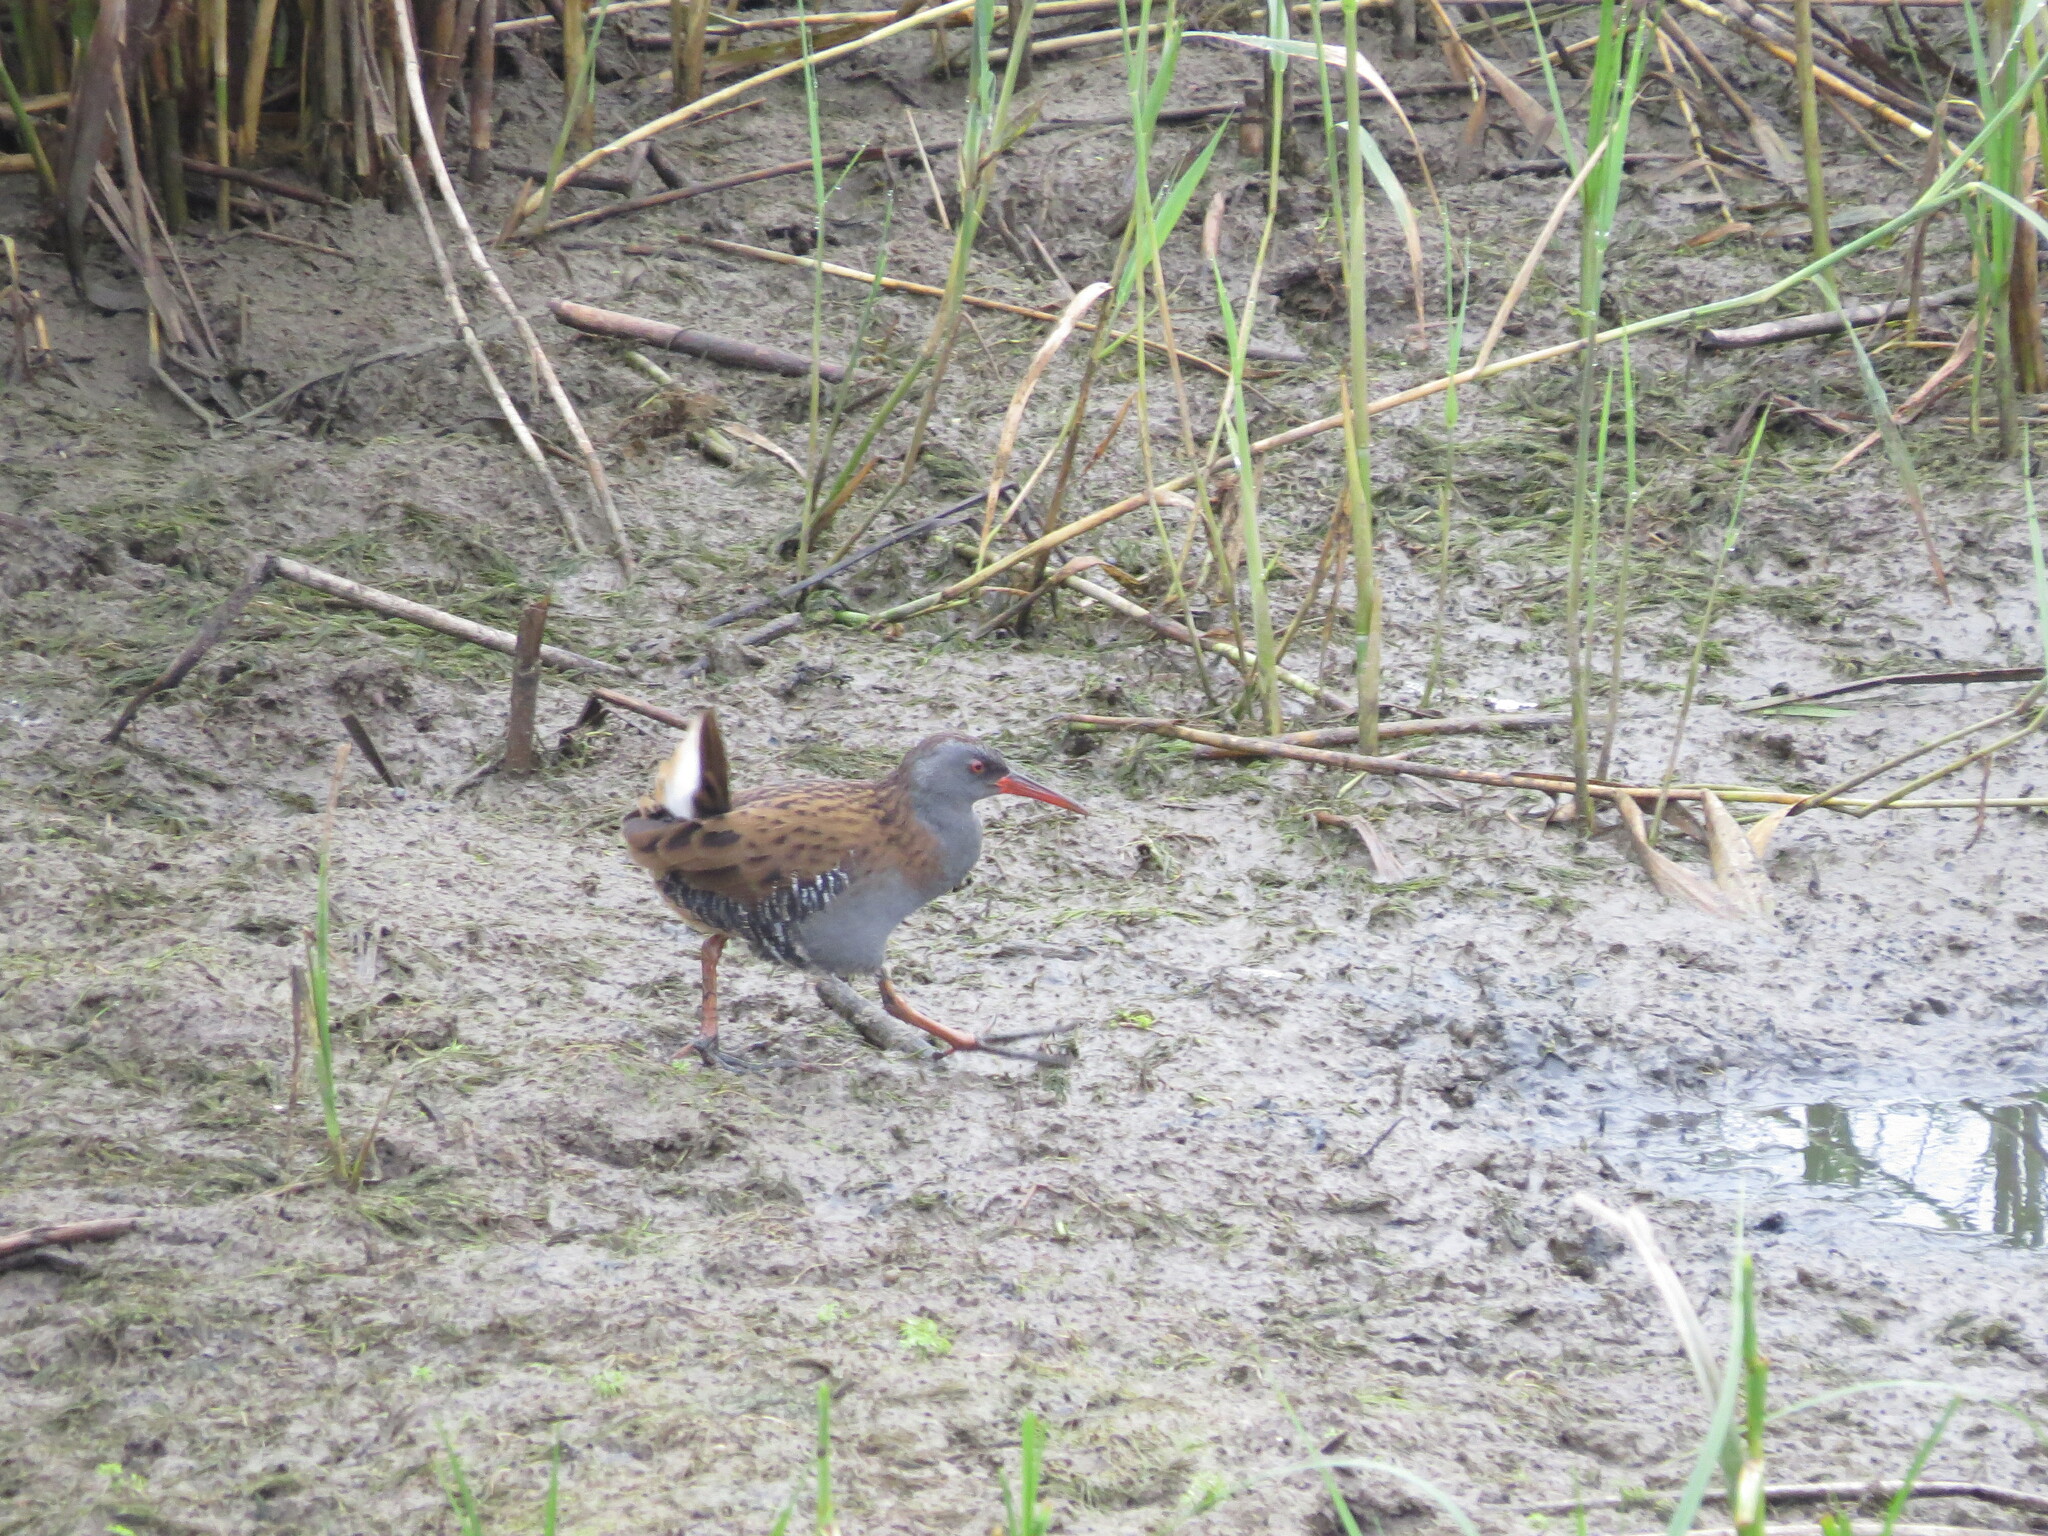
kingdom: Animalia
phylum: Chordata
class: Aves
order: Gruiformes
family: Rallidae
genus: Rallus
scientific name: Rallus aquaticus
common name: Water rail
